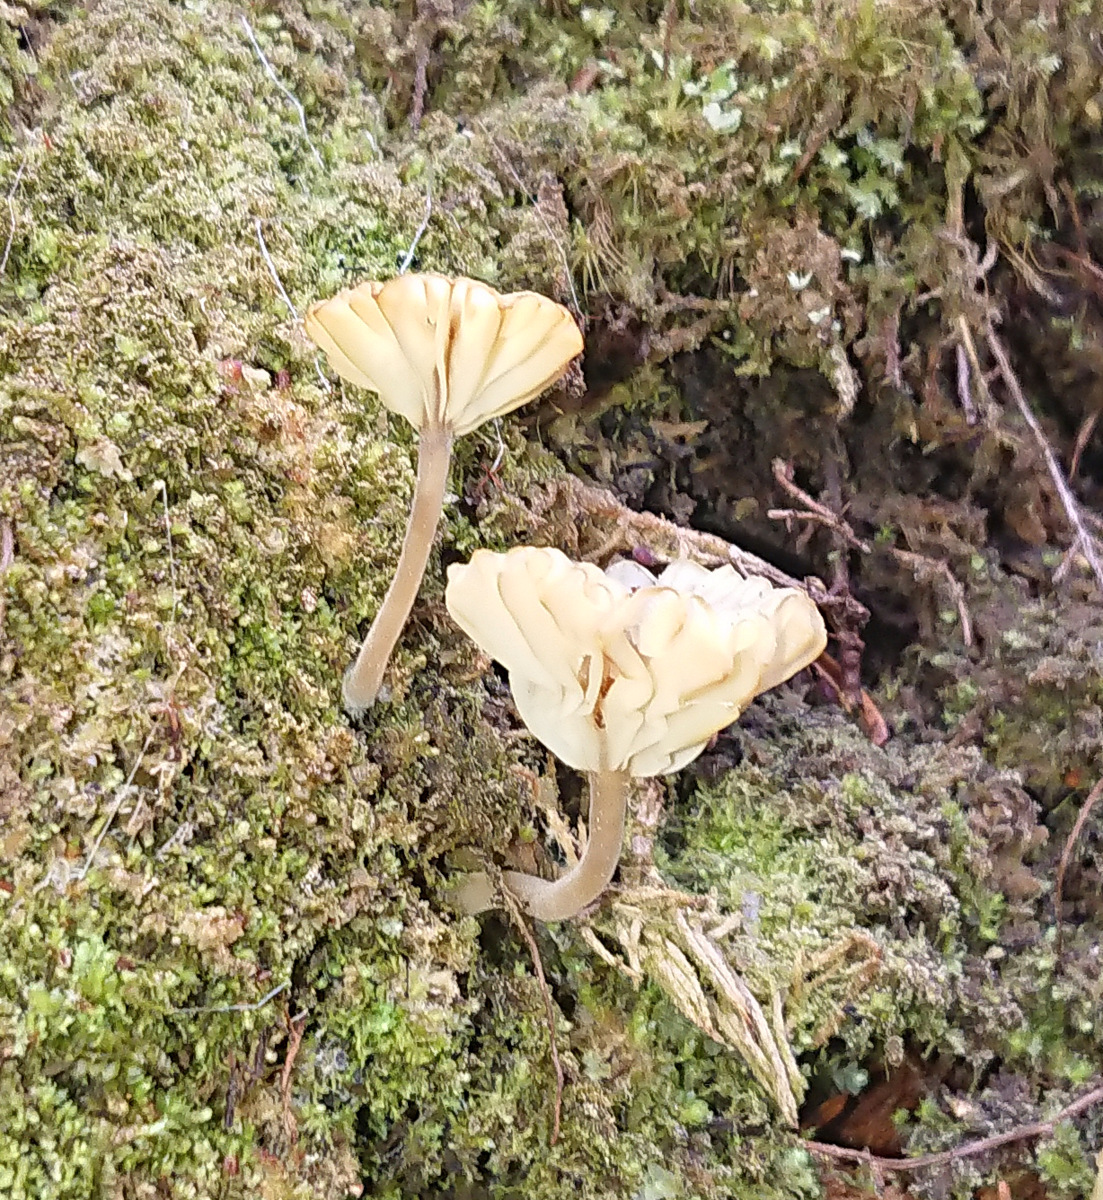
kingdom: Fungi
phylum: Basidiomycota
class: Agaricomycetes
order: Agaricales
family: Hygrophoraceae
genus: Lichenomphalia
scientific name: Lichenomphalia
